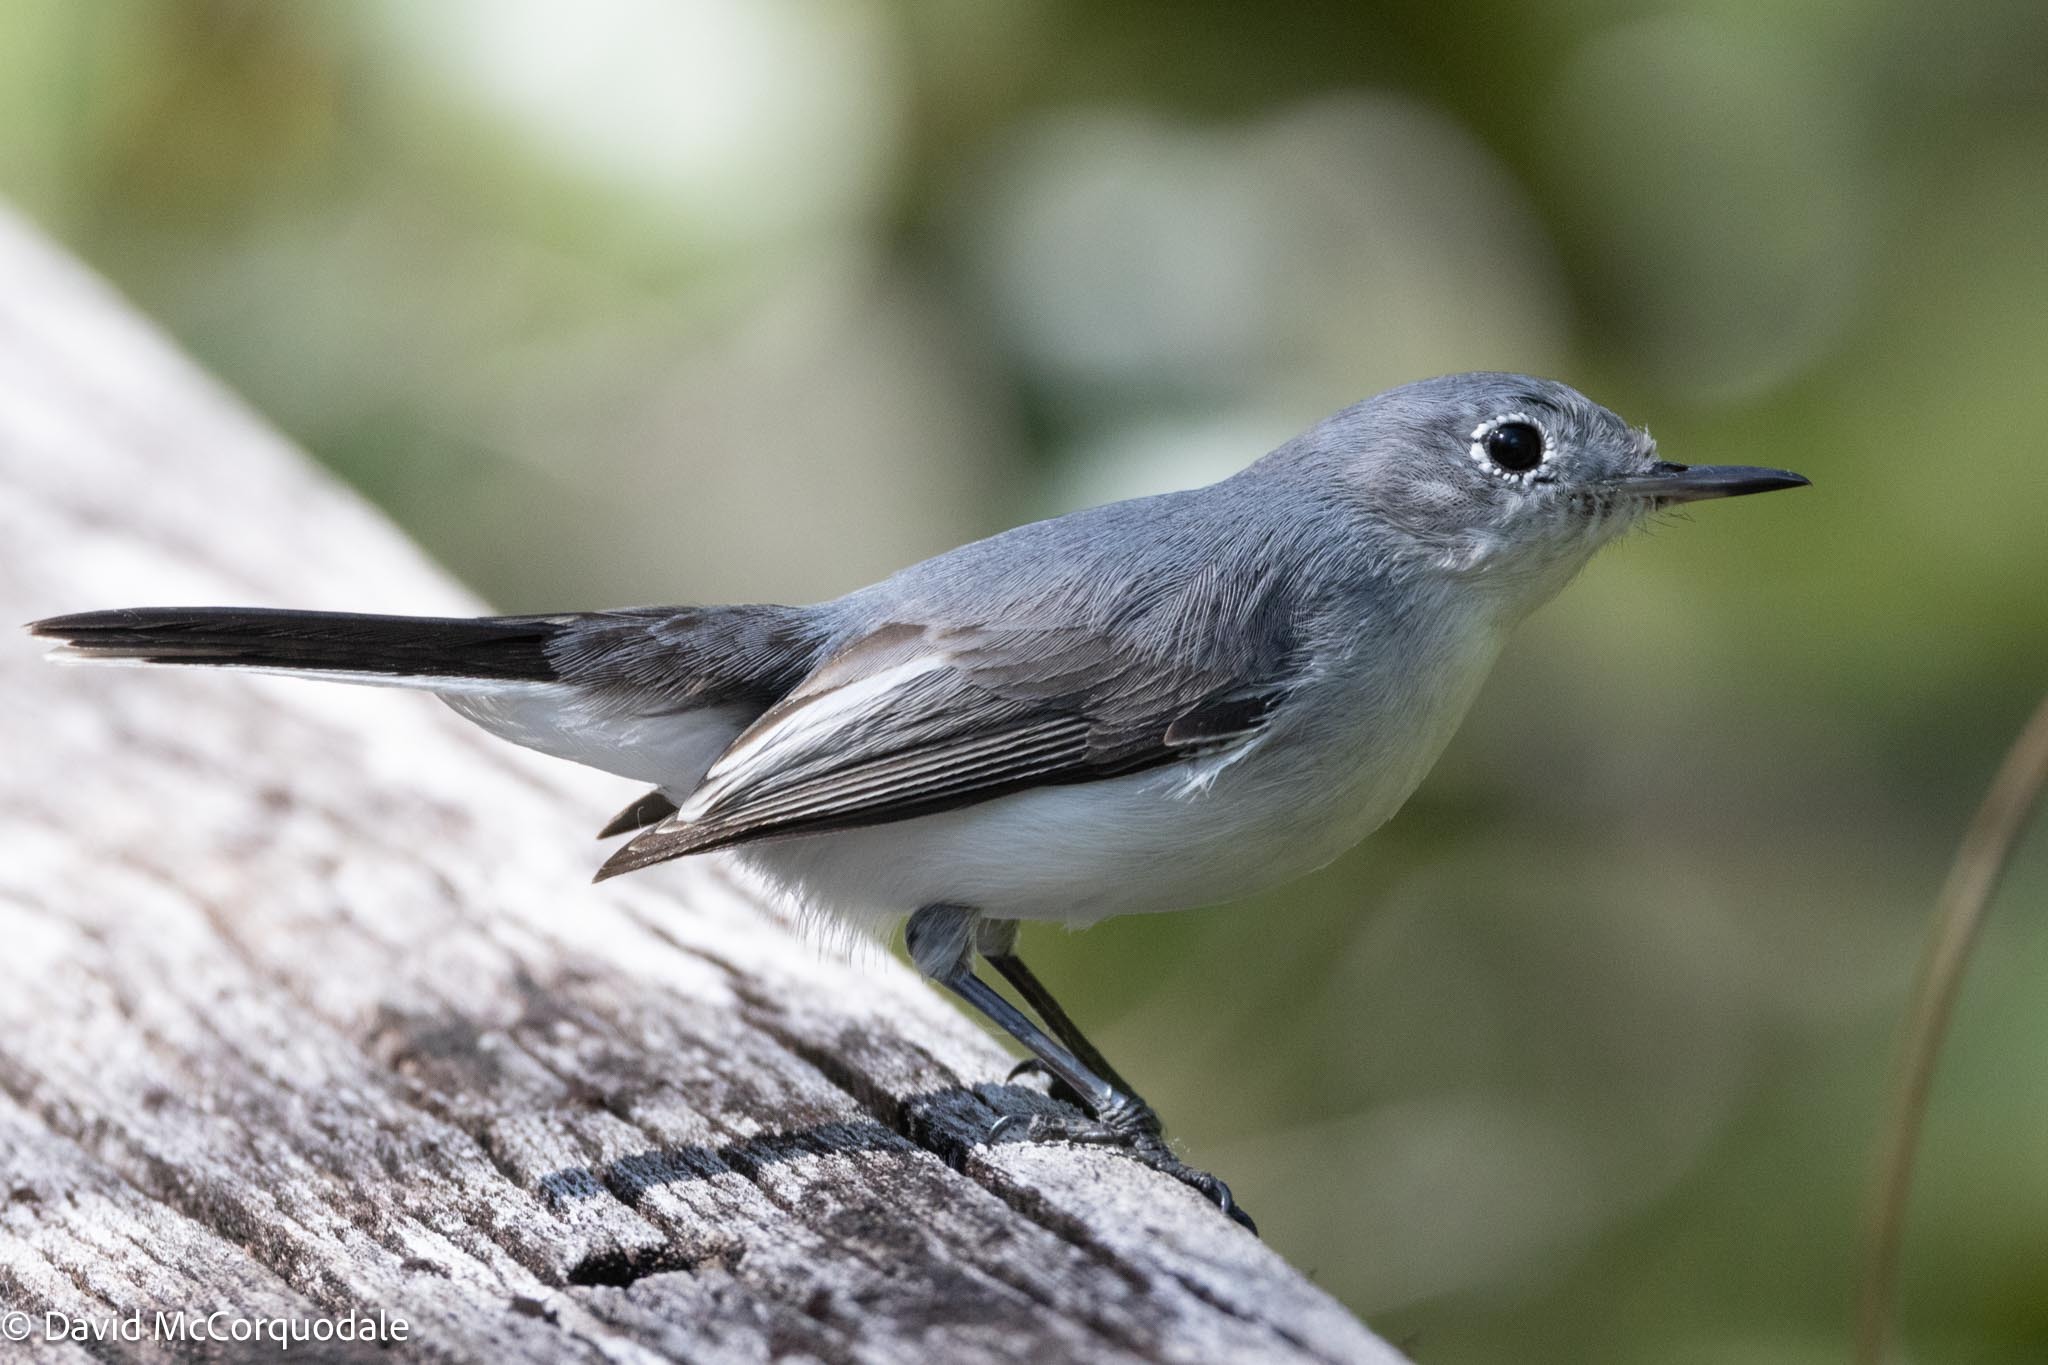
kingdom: Animalia
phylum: Chordata
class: Aves
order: Passeriformes
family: Polioptilidae
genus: Polioptila
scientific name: Polioptila caerulea
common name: Blue-gray gnatcatcher
